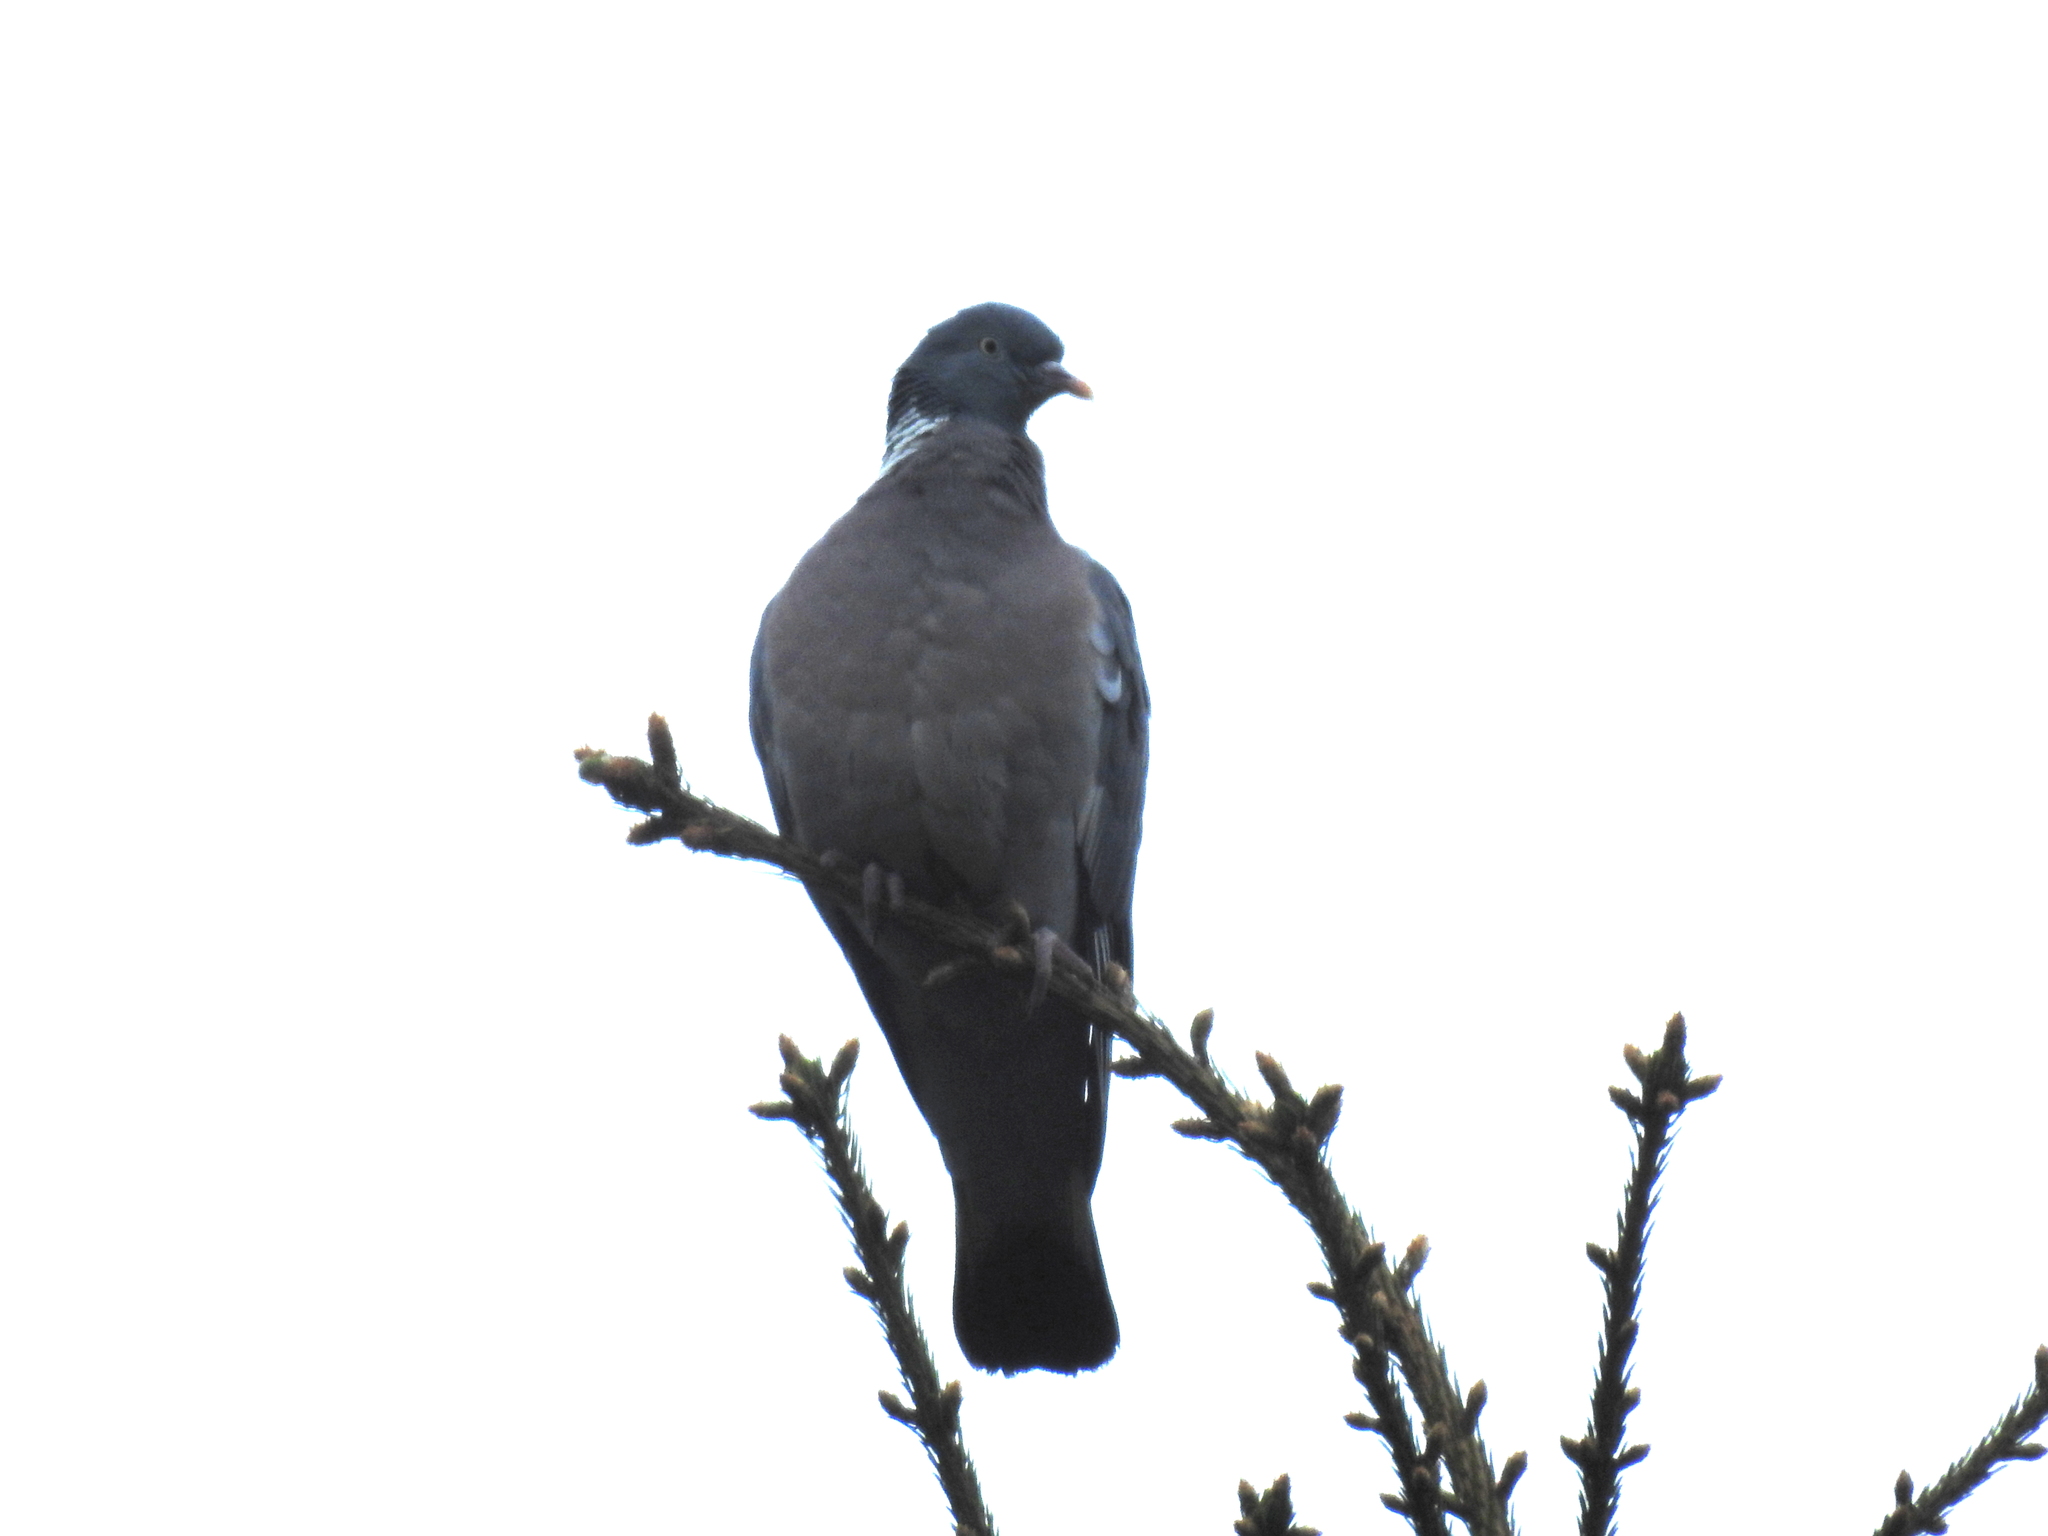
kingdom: Animalia
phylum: Chordata
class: Aves
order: Columbiformes
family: Columbidae
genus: Columba
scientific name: Columba palumbus
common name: Common wood pigeon
